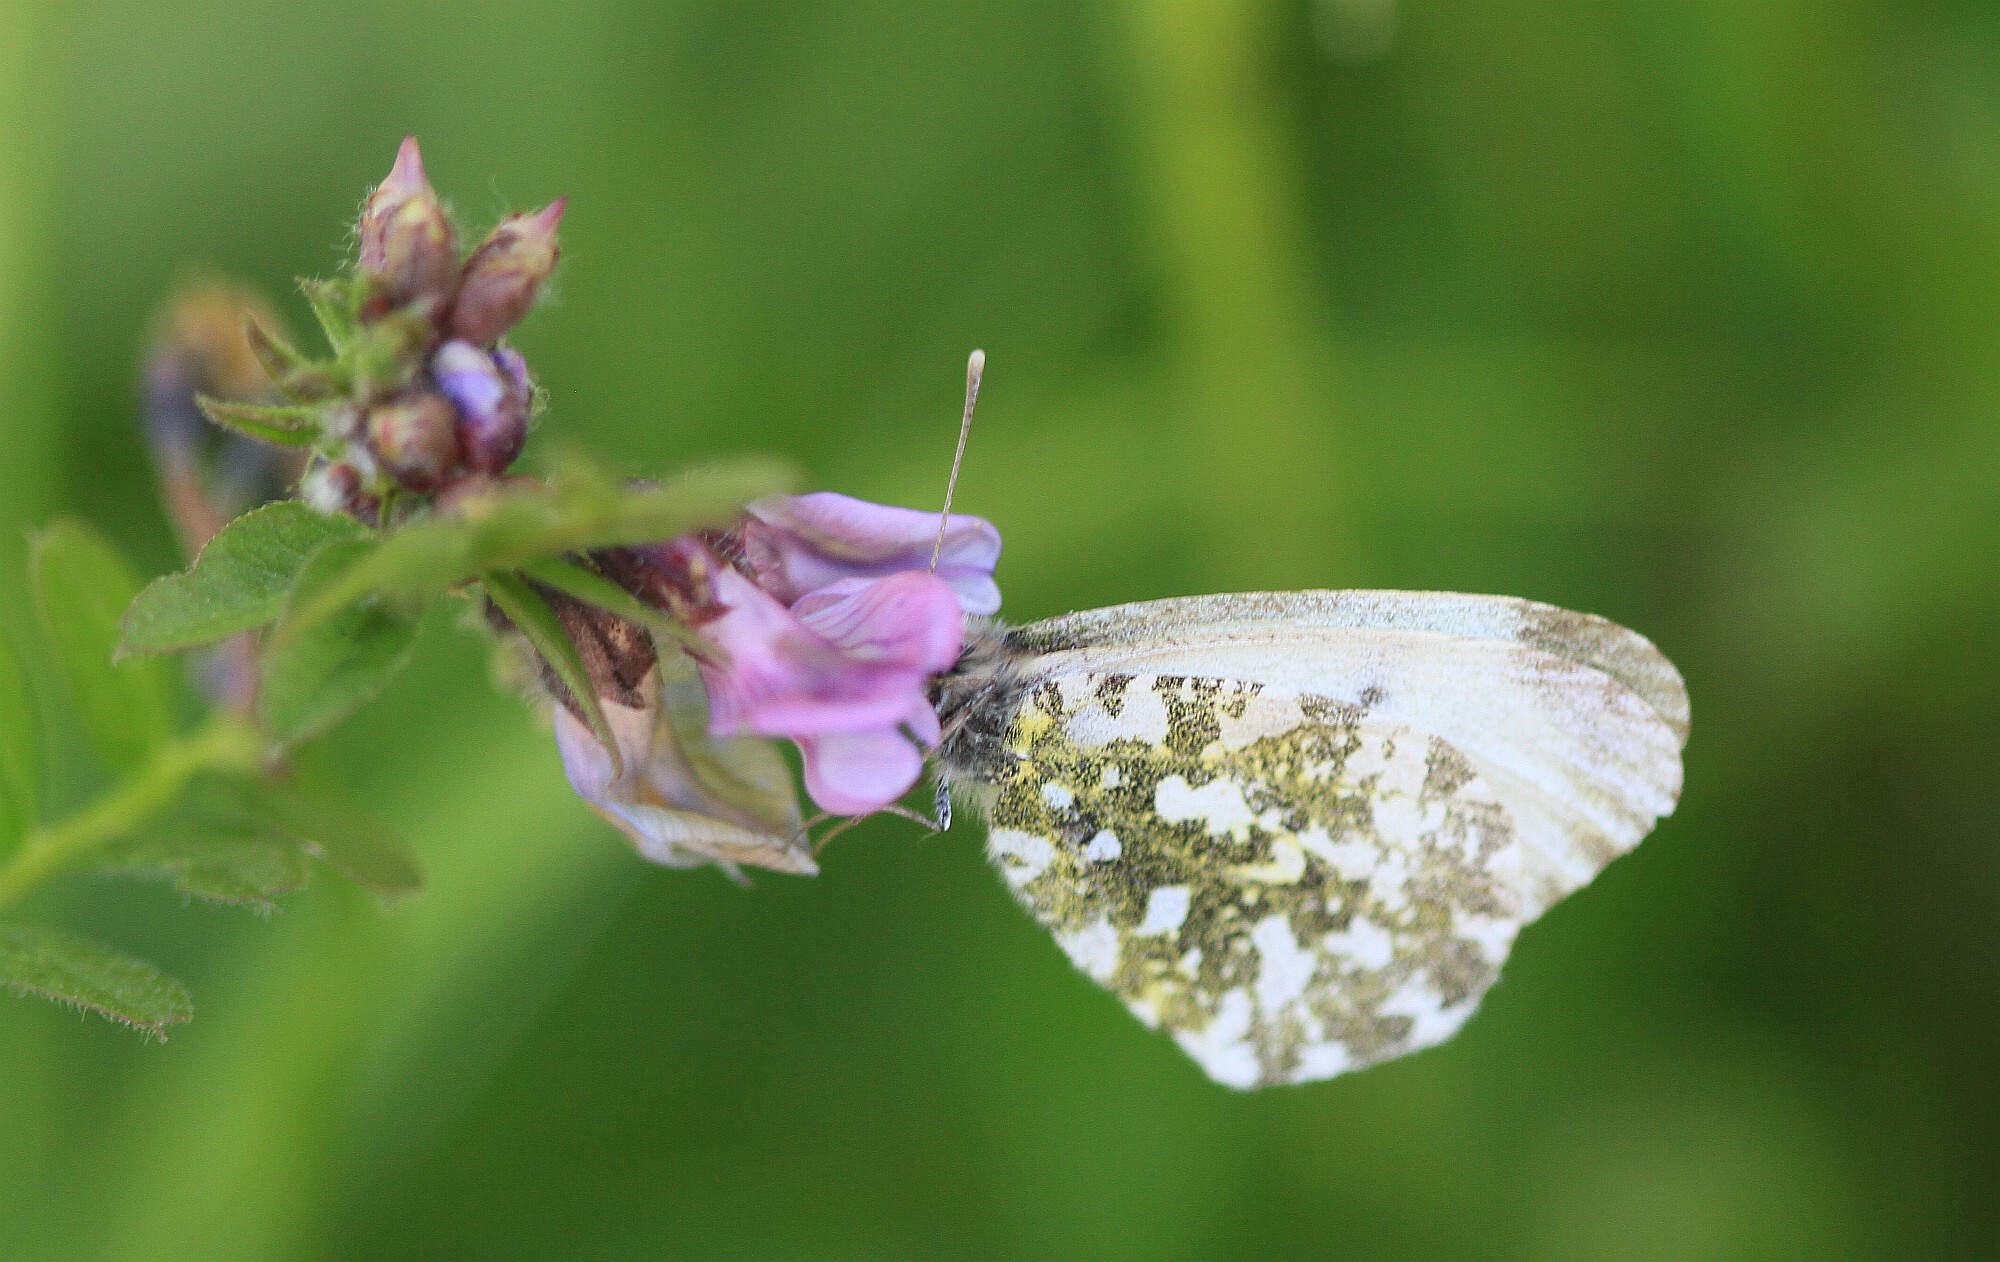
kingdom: Animalia
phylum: Arthropoda
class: Insecta
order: Lepidoptera
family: Pieridae
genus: Anthocharis
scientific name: Anthocharis cardamines
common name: Orange-tip
